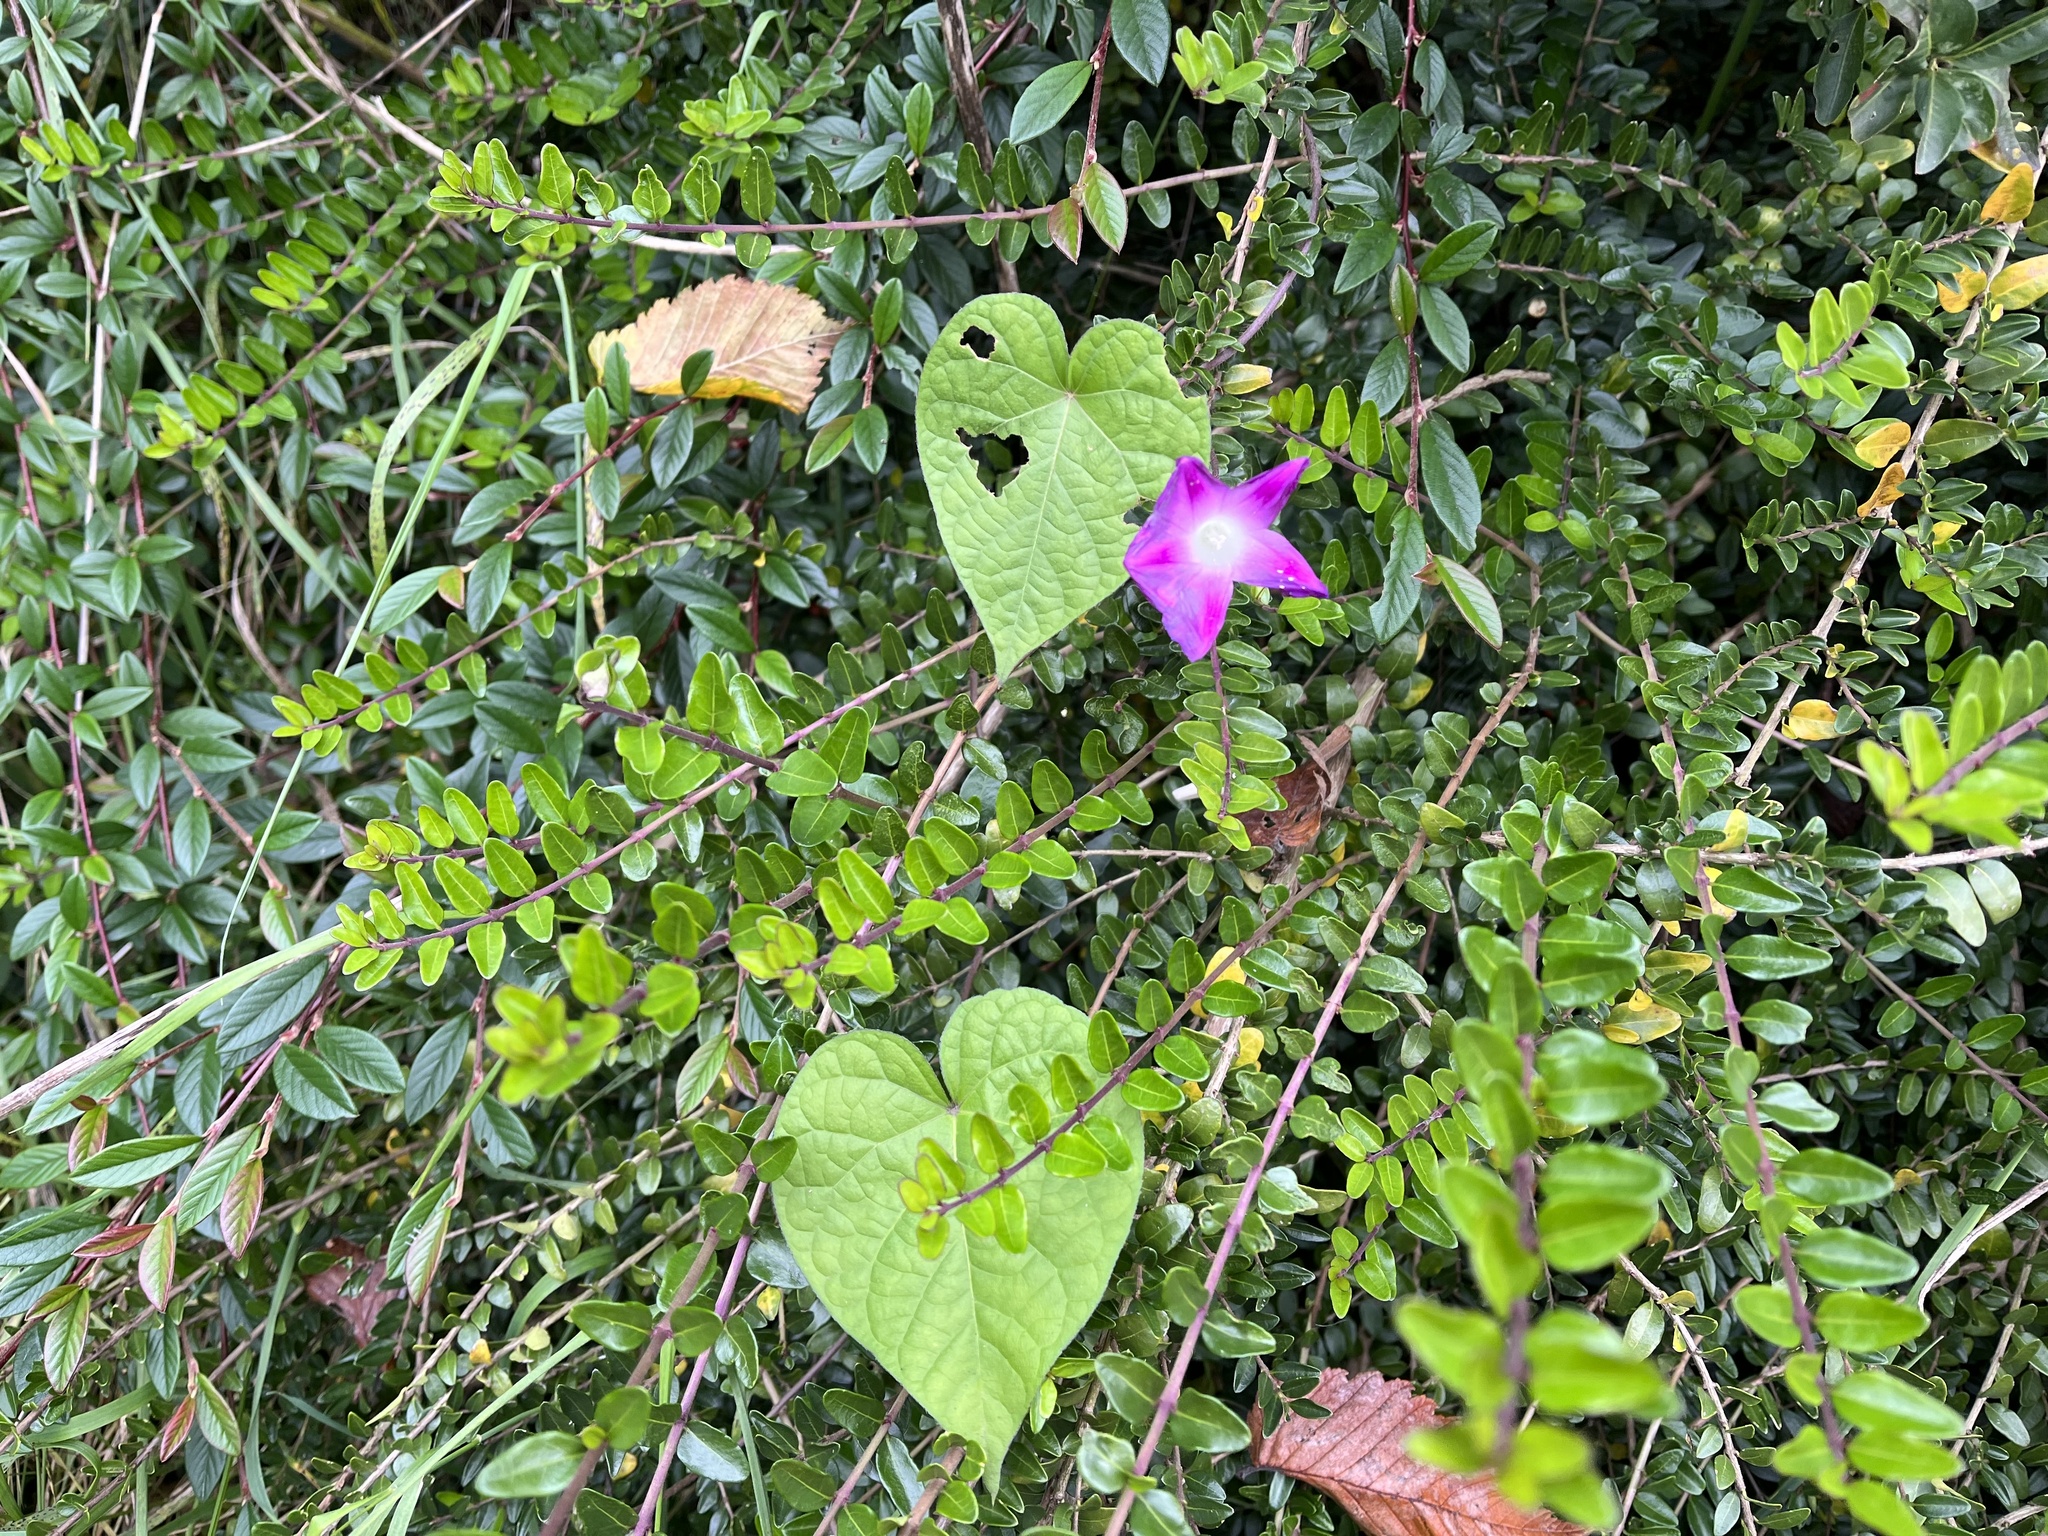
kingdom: Plantae
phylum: Tracheophyta
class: Magnoliopsida
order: Solanales
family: Convolvulaceae
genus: Ipomoea
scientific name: Ipomoea purpurea
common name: Common morning-glory
